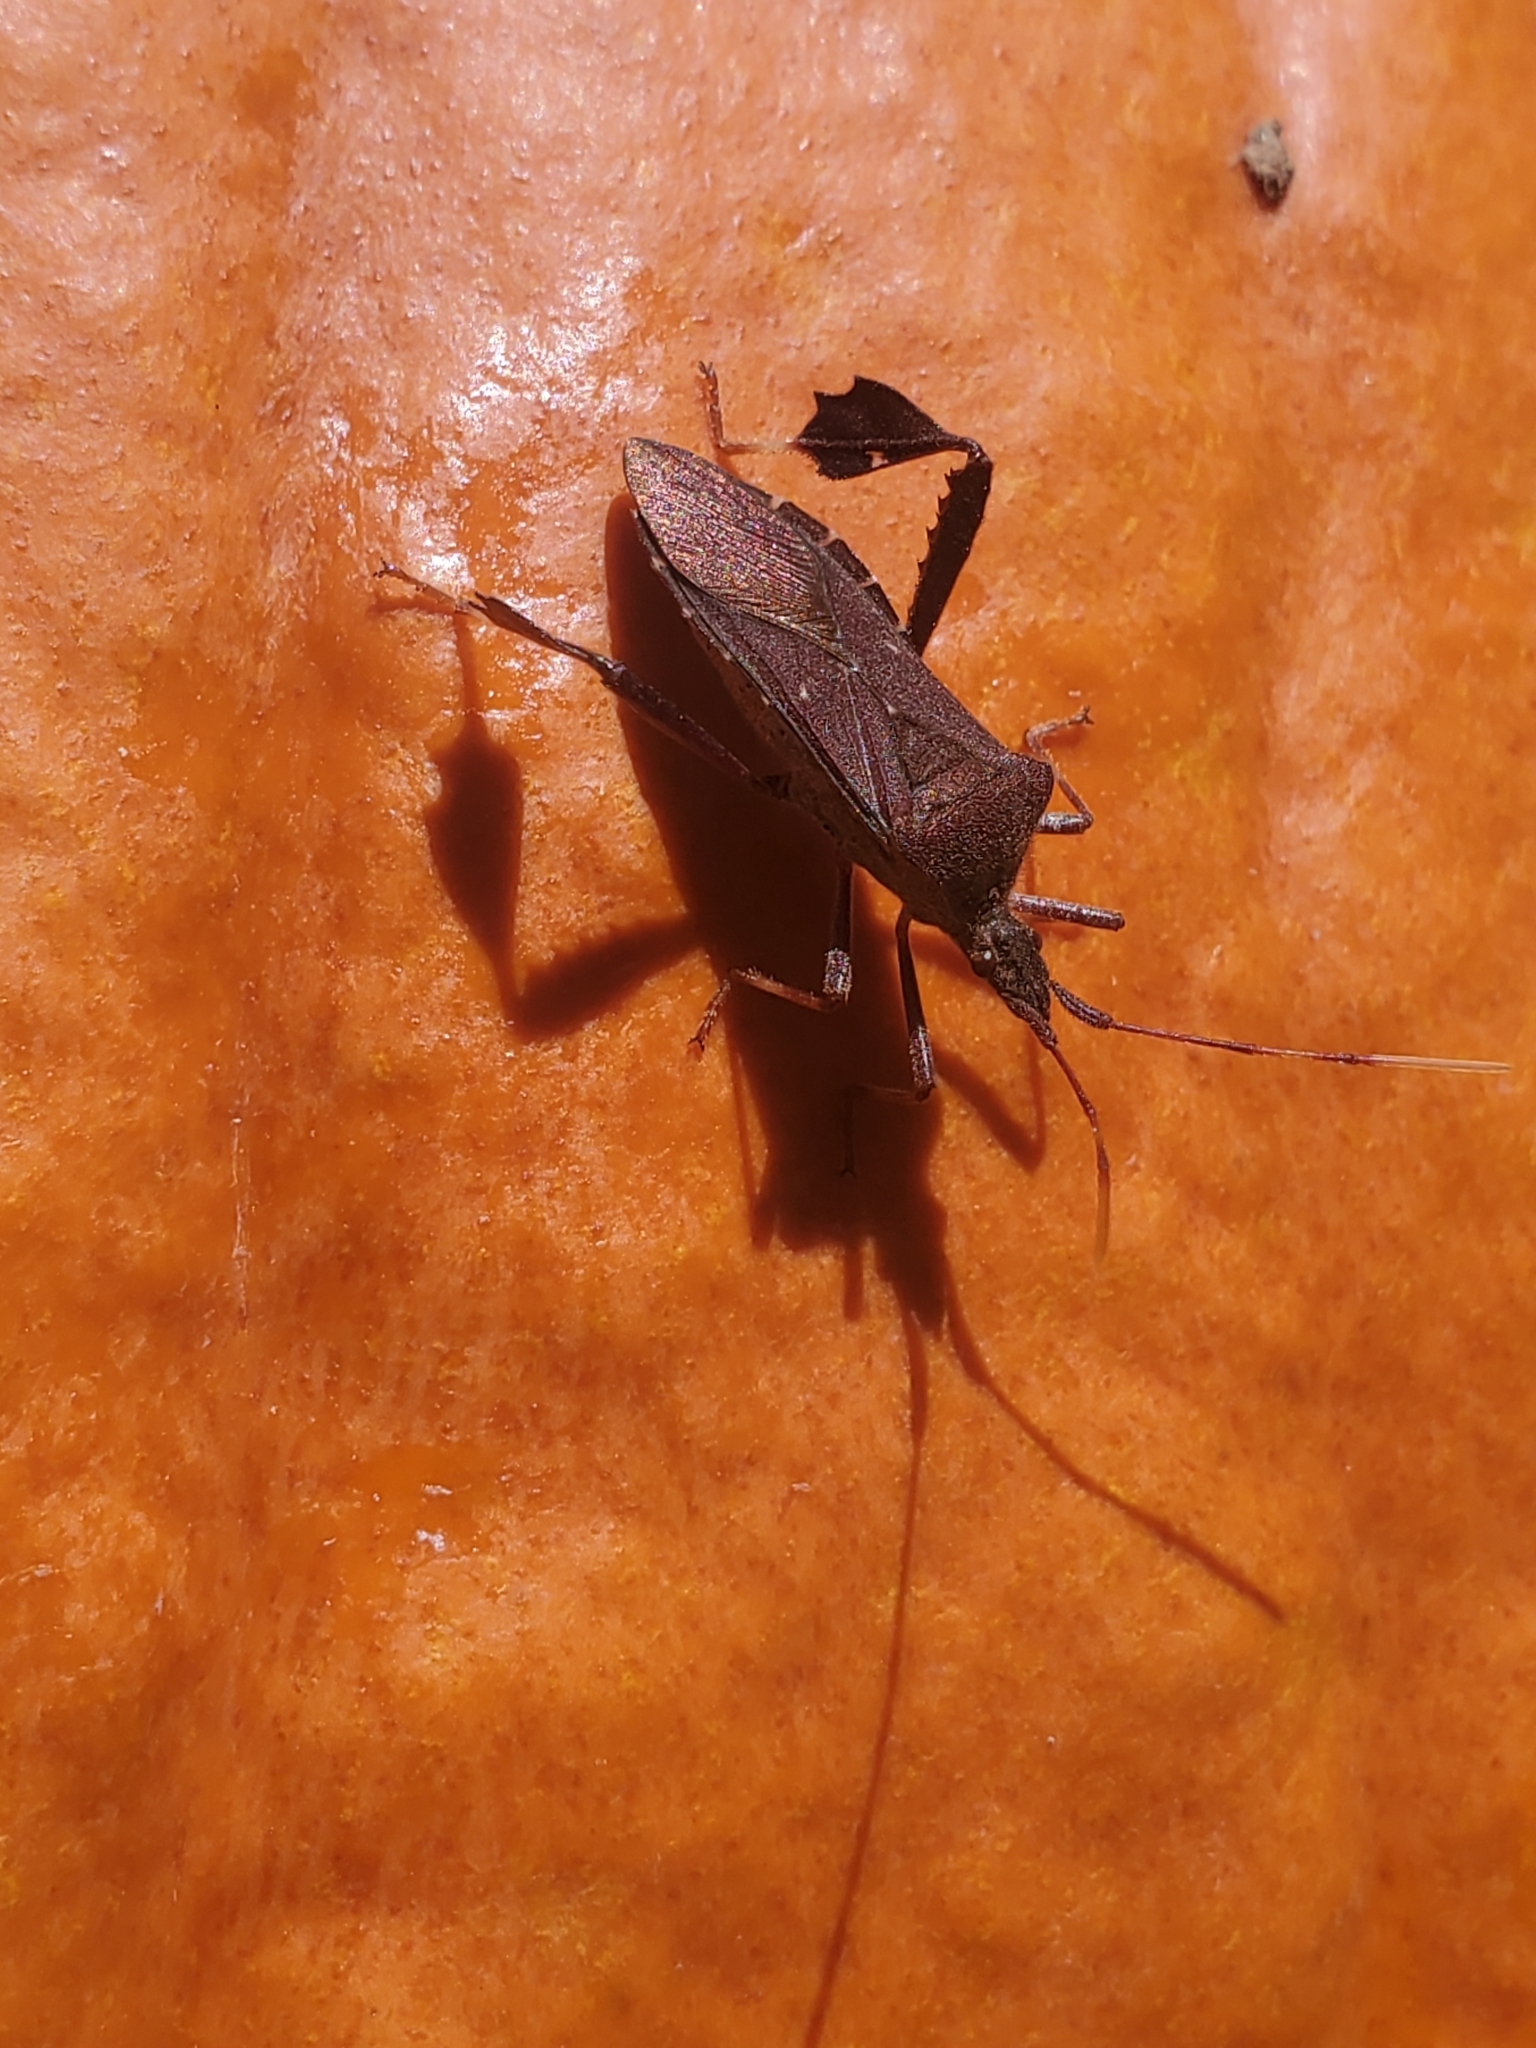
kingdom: Animalia
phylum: Arthropoda
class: Insecta
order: Hemiptera
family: Coreidae
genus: Leptoglossus
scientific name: Leptoglossus oppositus
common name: Northern leaf-footed bug
